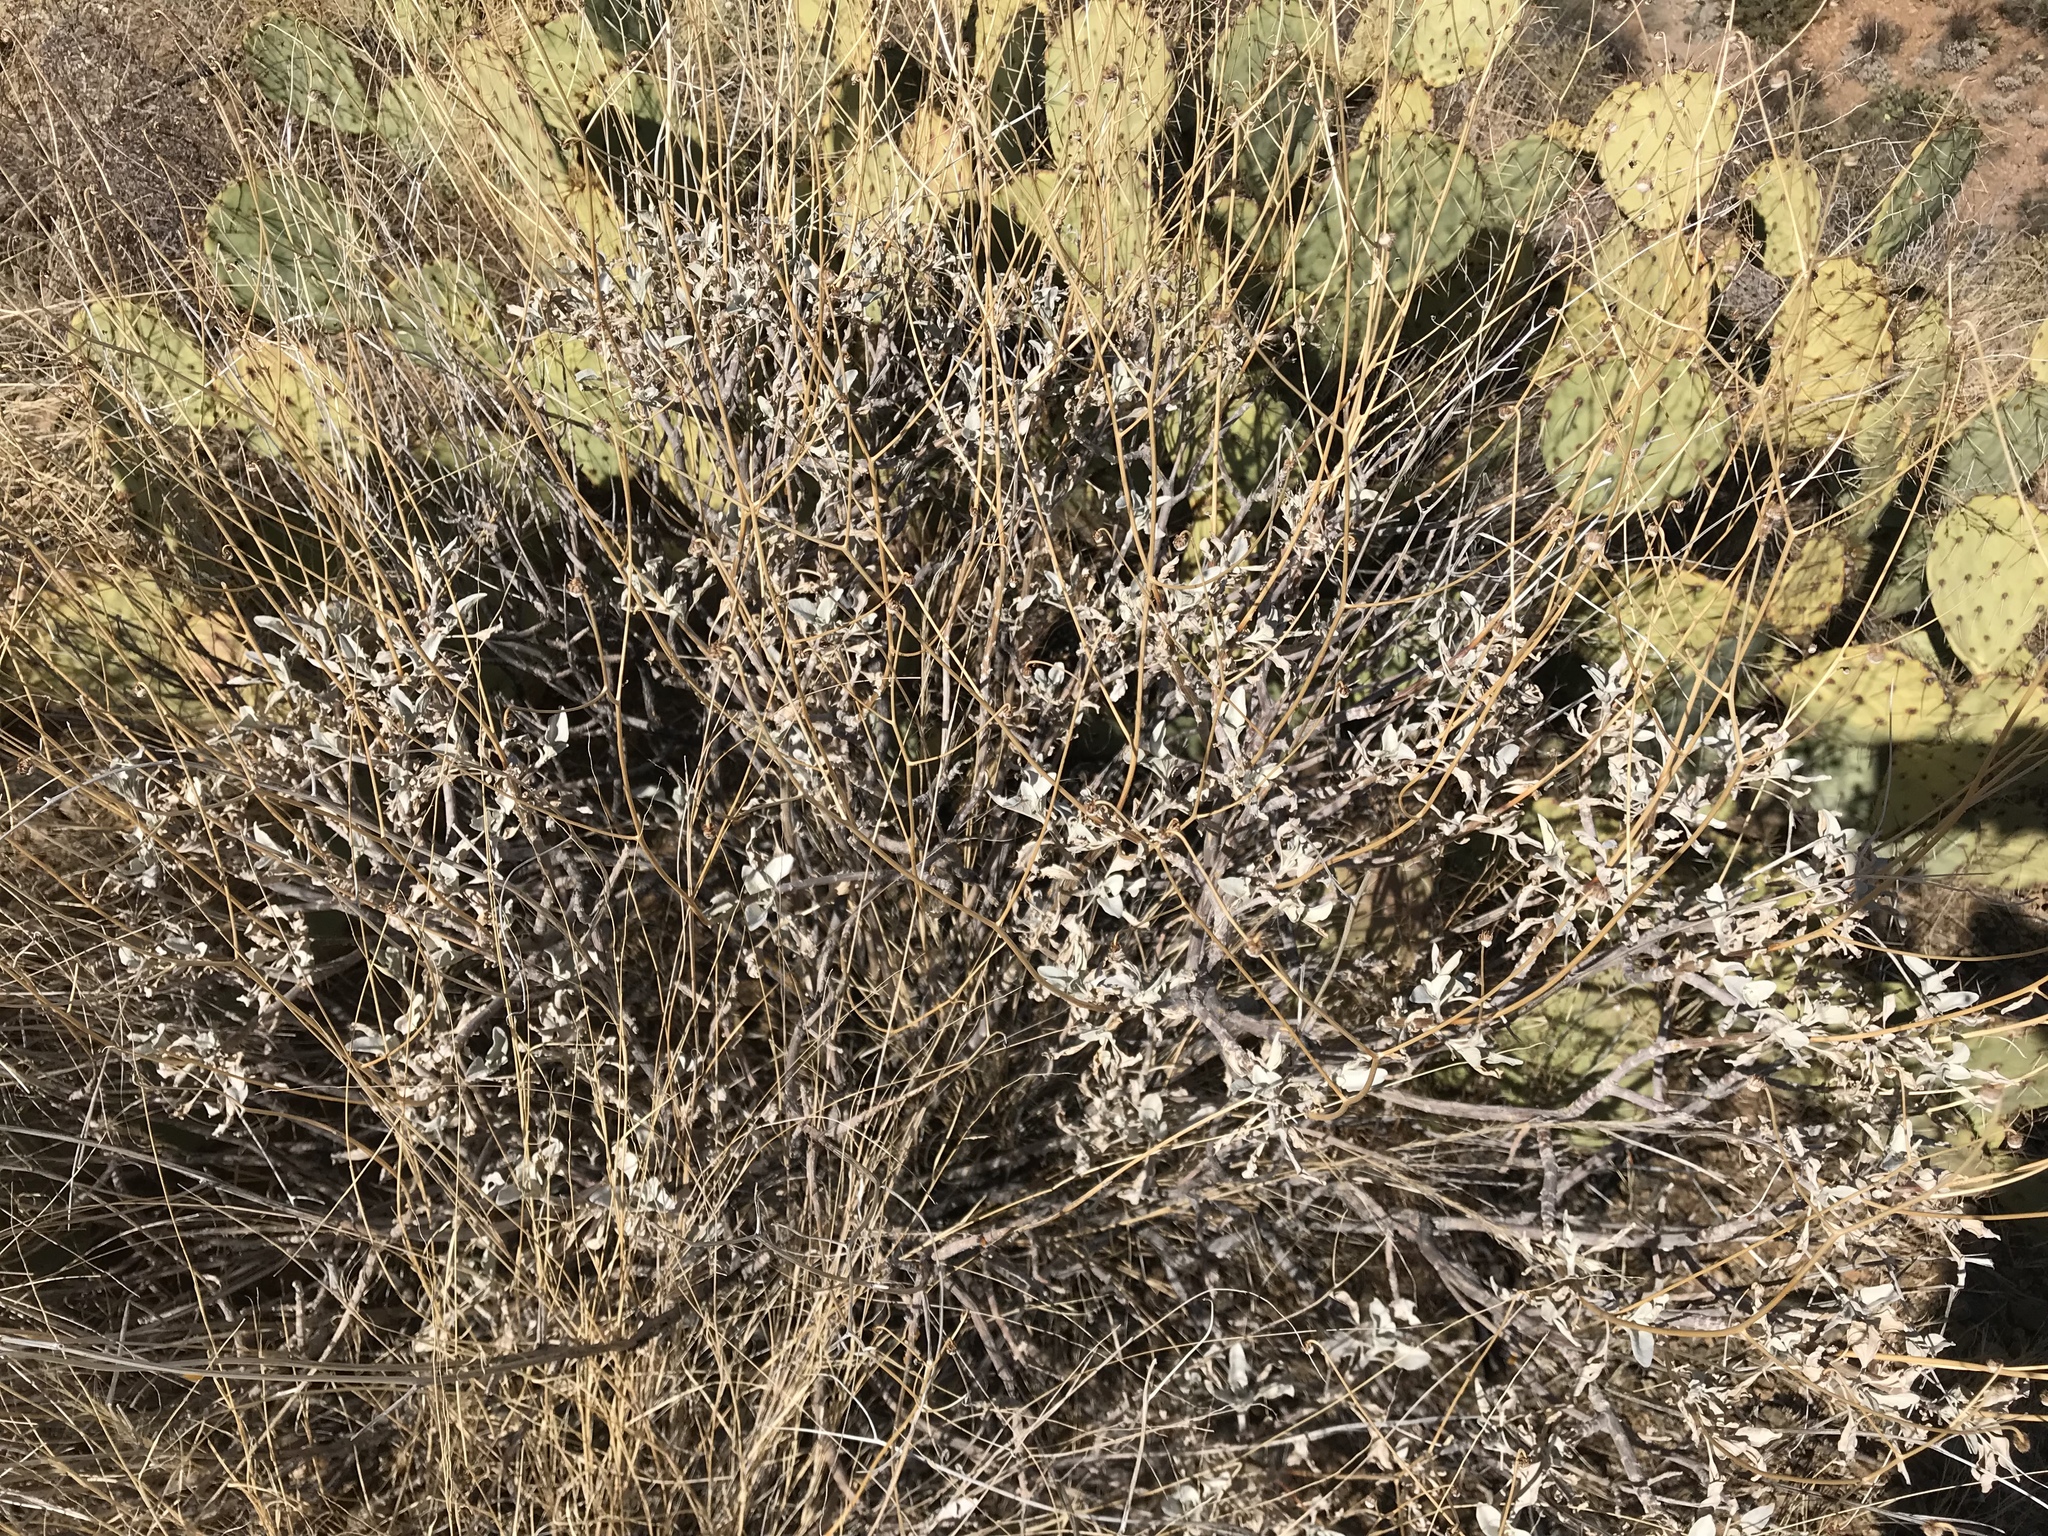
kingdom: Plantae
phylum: Tracheophyta
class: Magnoliopsida
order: Asterales
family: Asteraceae
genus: Encelia
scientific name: Encelia farinosa
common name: Brittlebush
